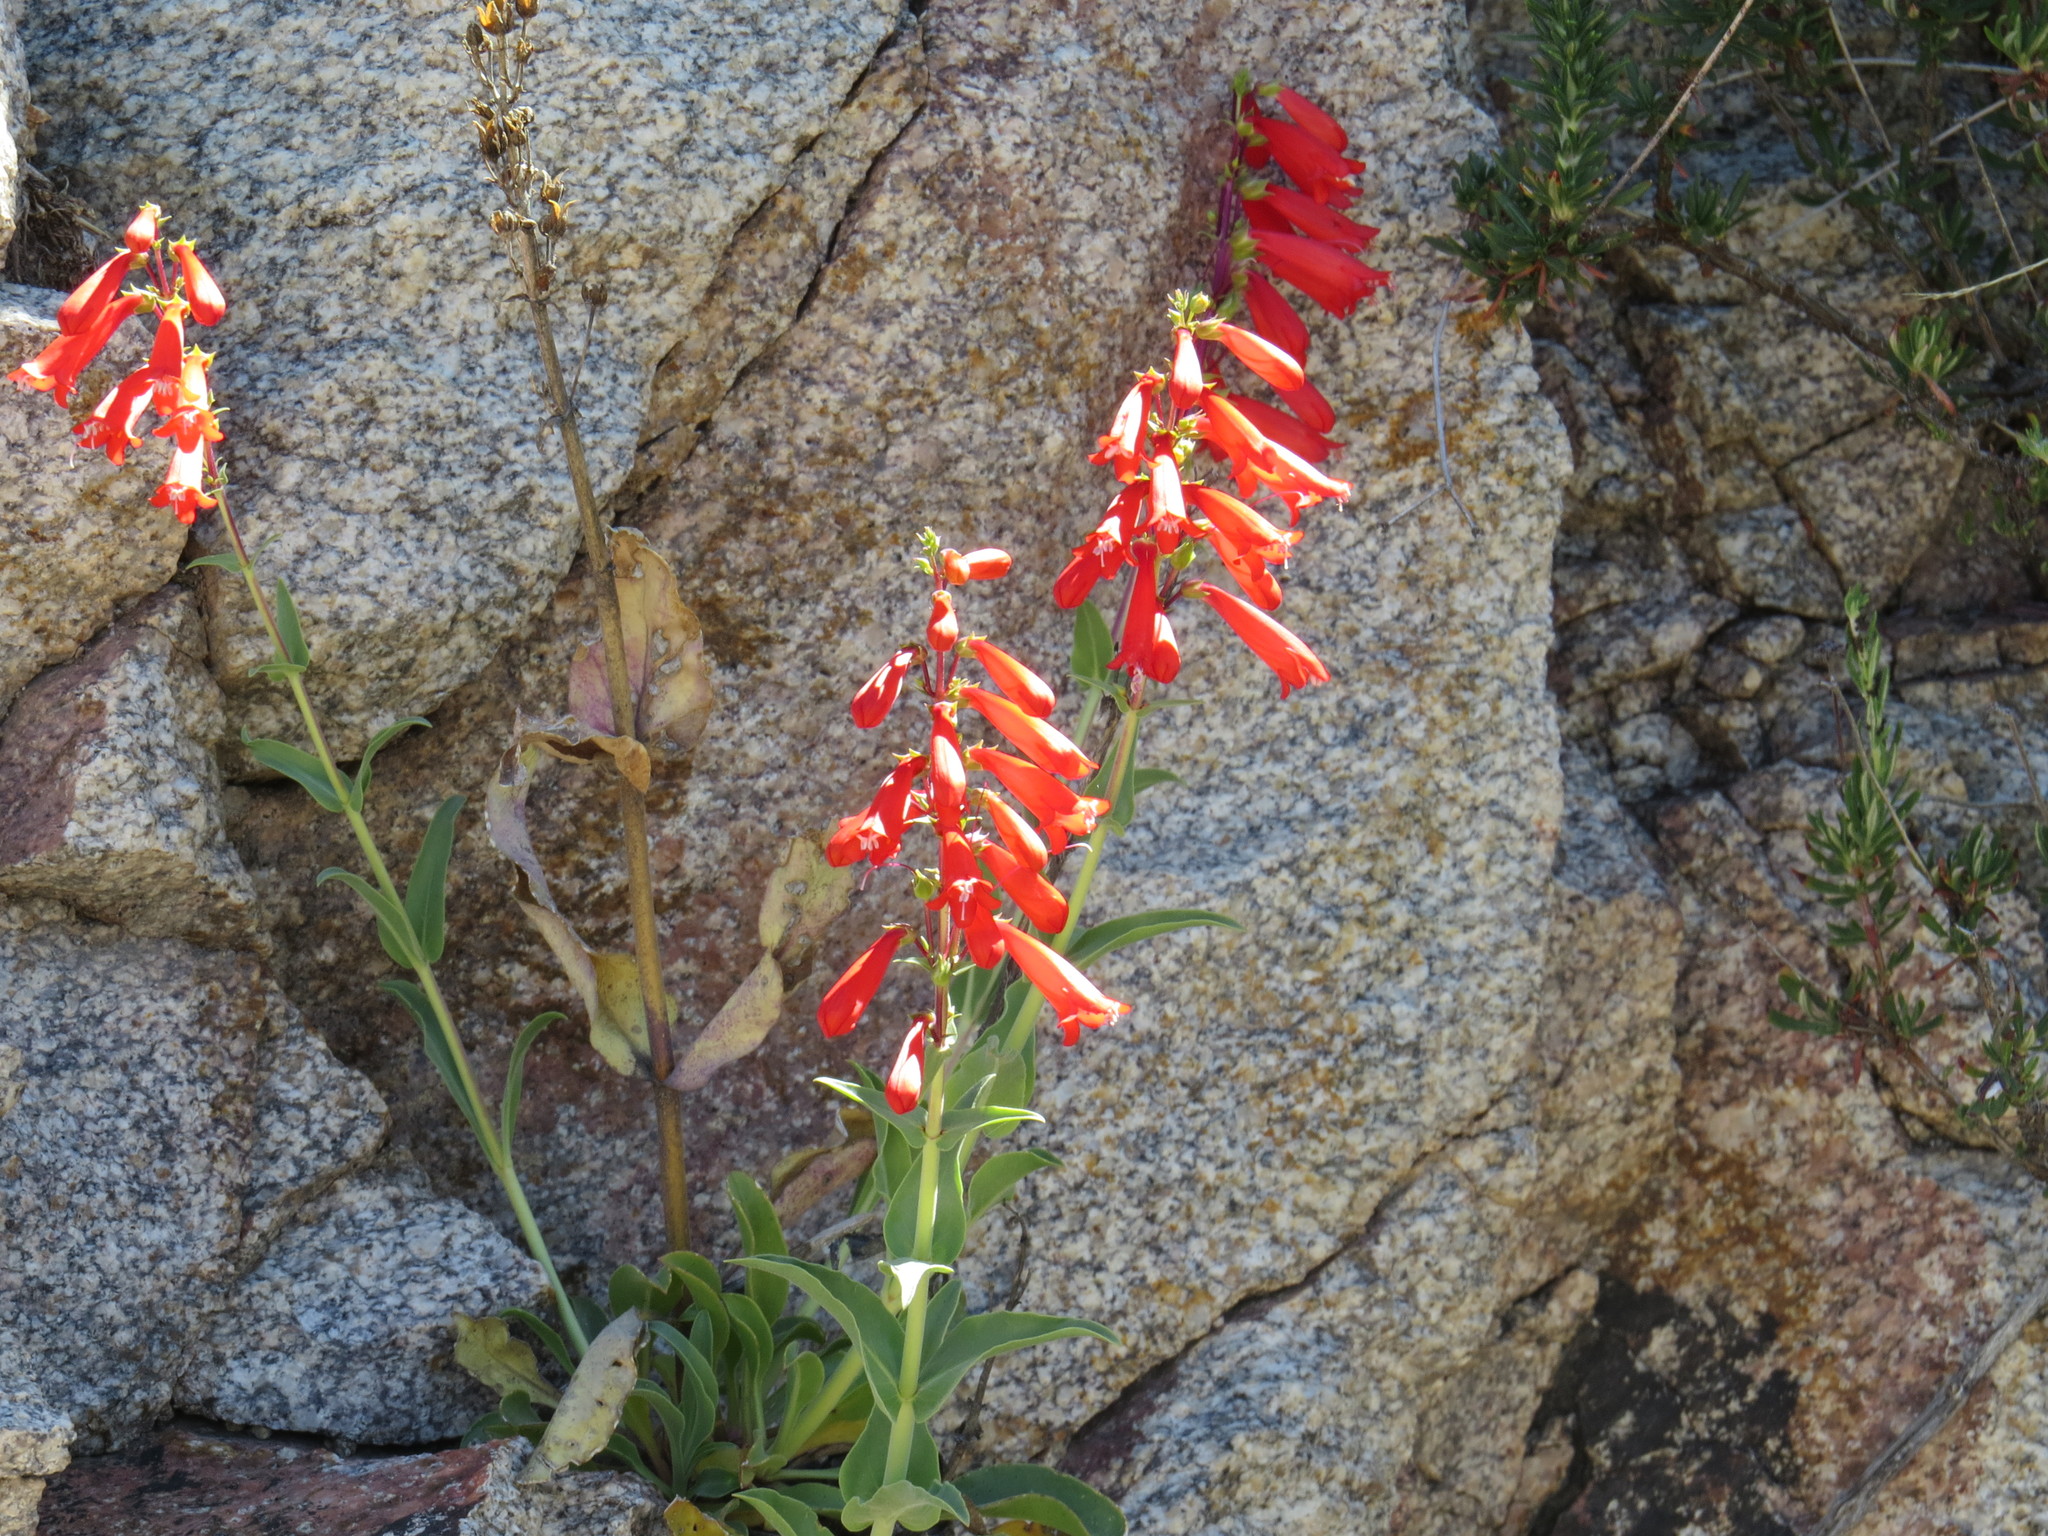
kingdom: Plantae
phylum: Tracheophyta
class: Magnoliopsida
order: Lamiales
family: Plantaginaceae
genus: Penstemon
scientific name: Penstemon eatonii
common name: Eaton's penstemon
